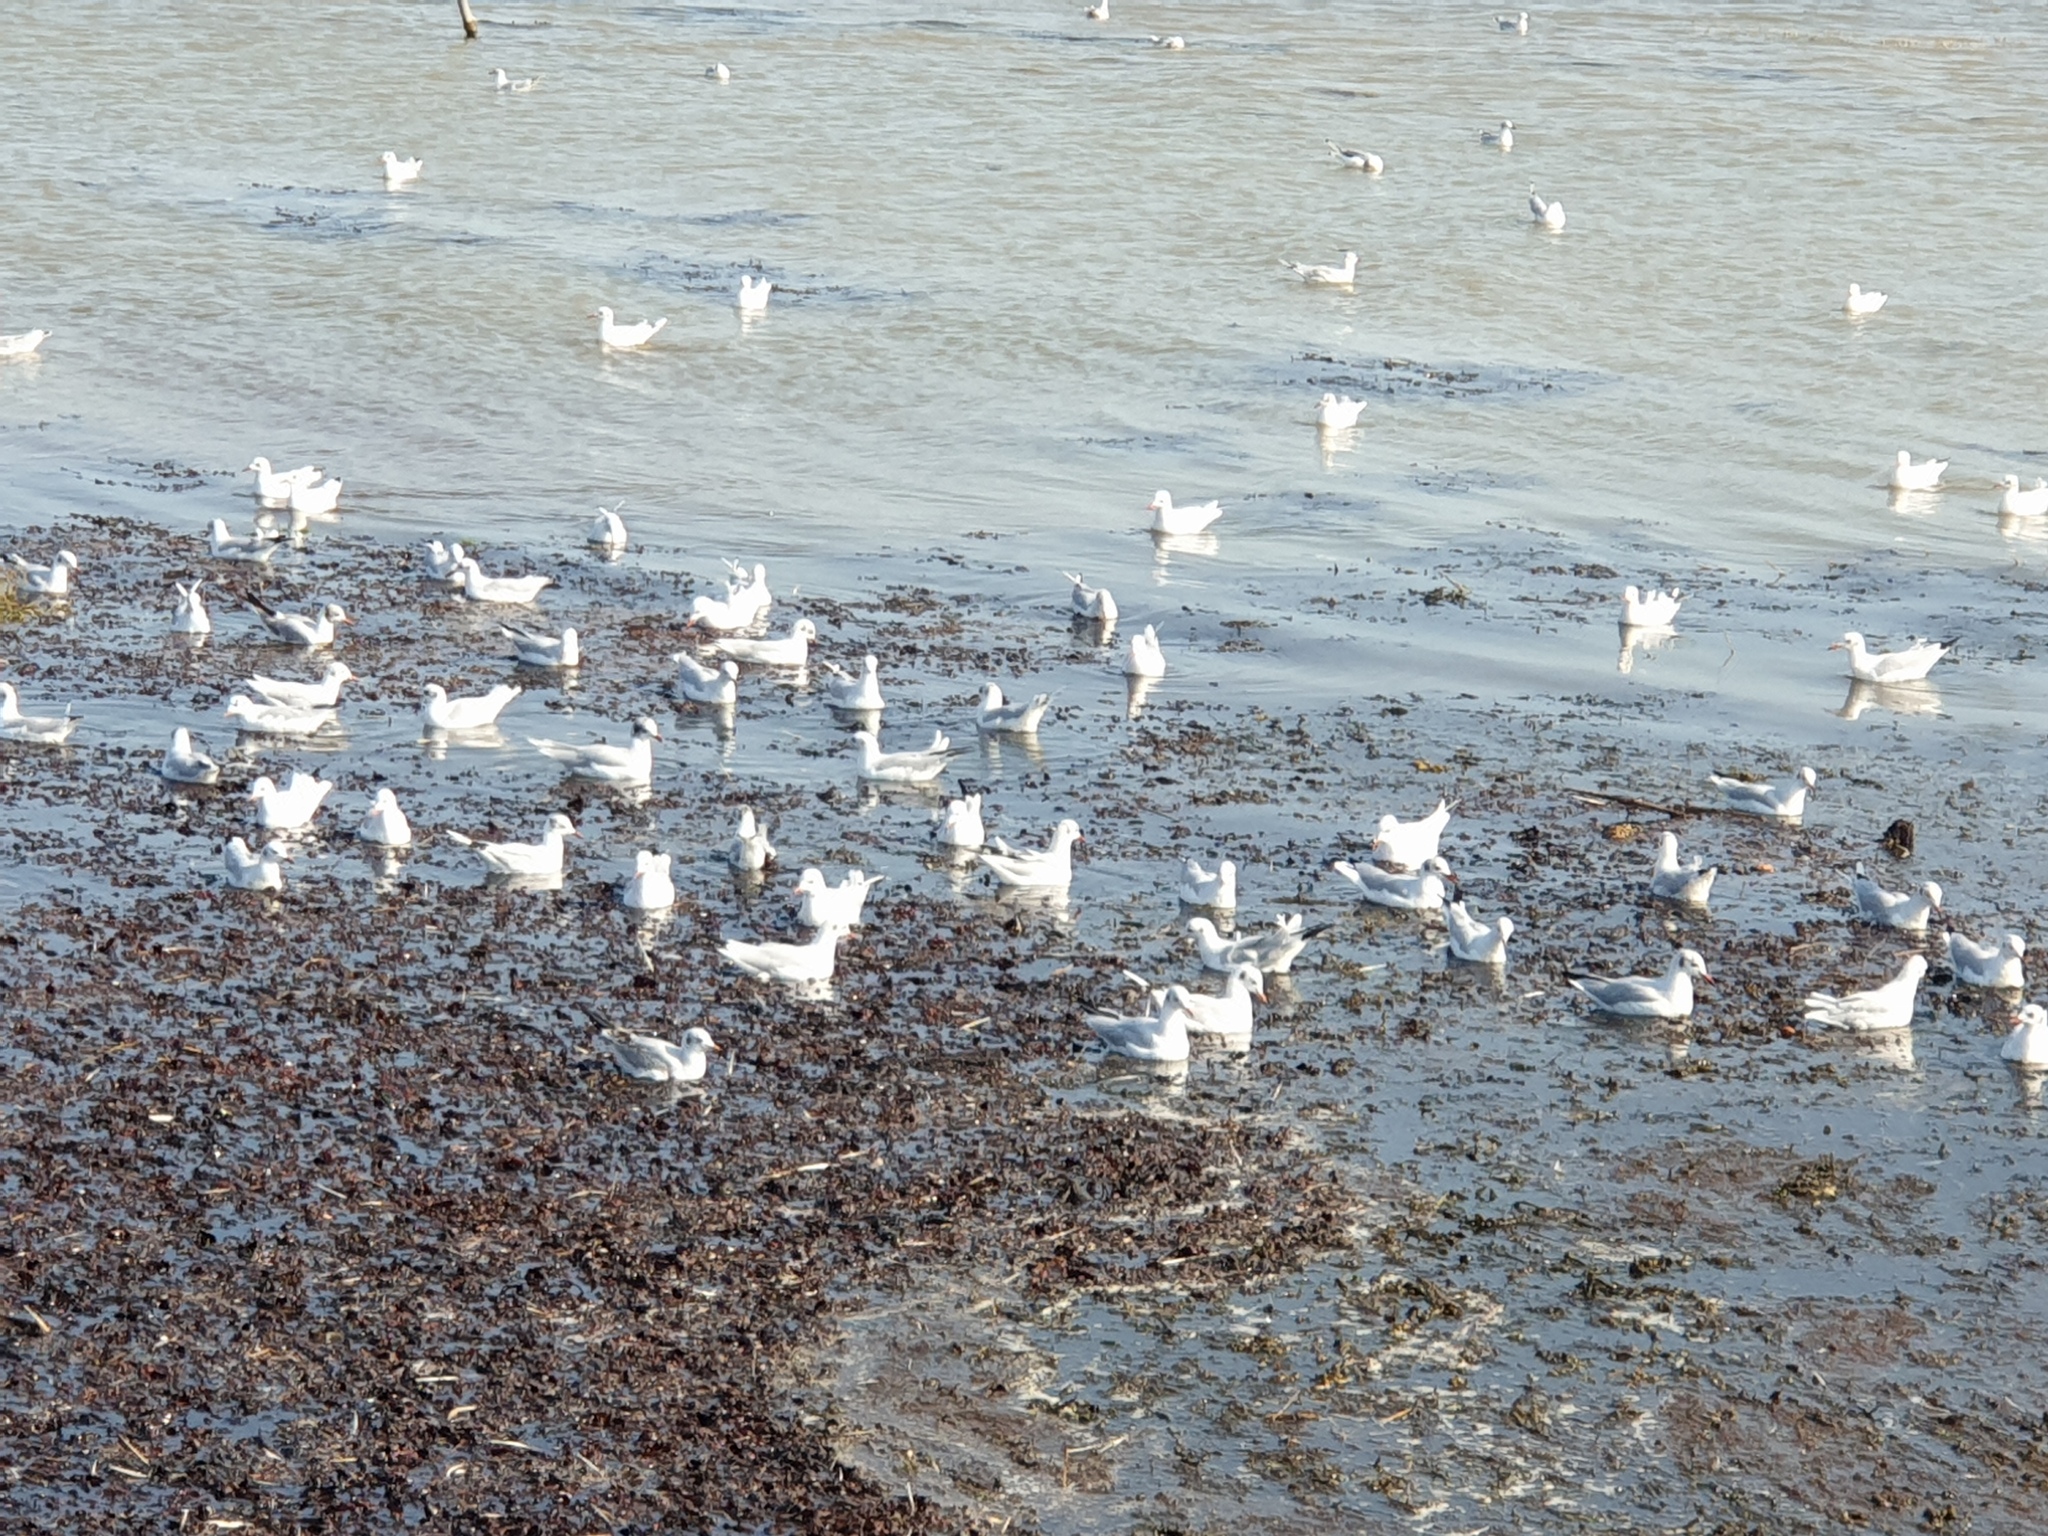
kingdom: Animalia
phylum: Chordata
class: Aves
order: Charadriiformes
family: Laridae
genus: Chroicocephalus
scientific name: Chroicocephalus ridibundus
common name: Black-headed gull
